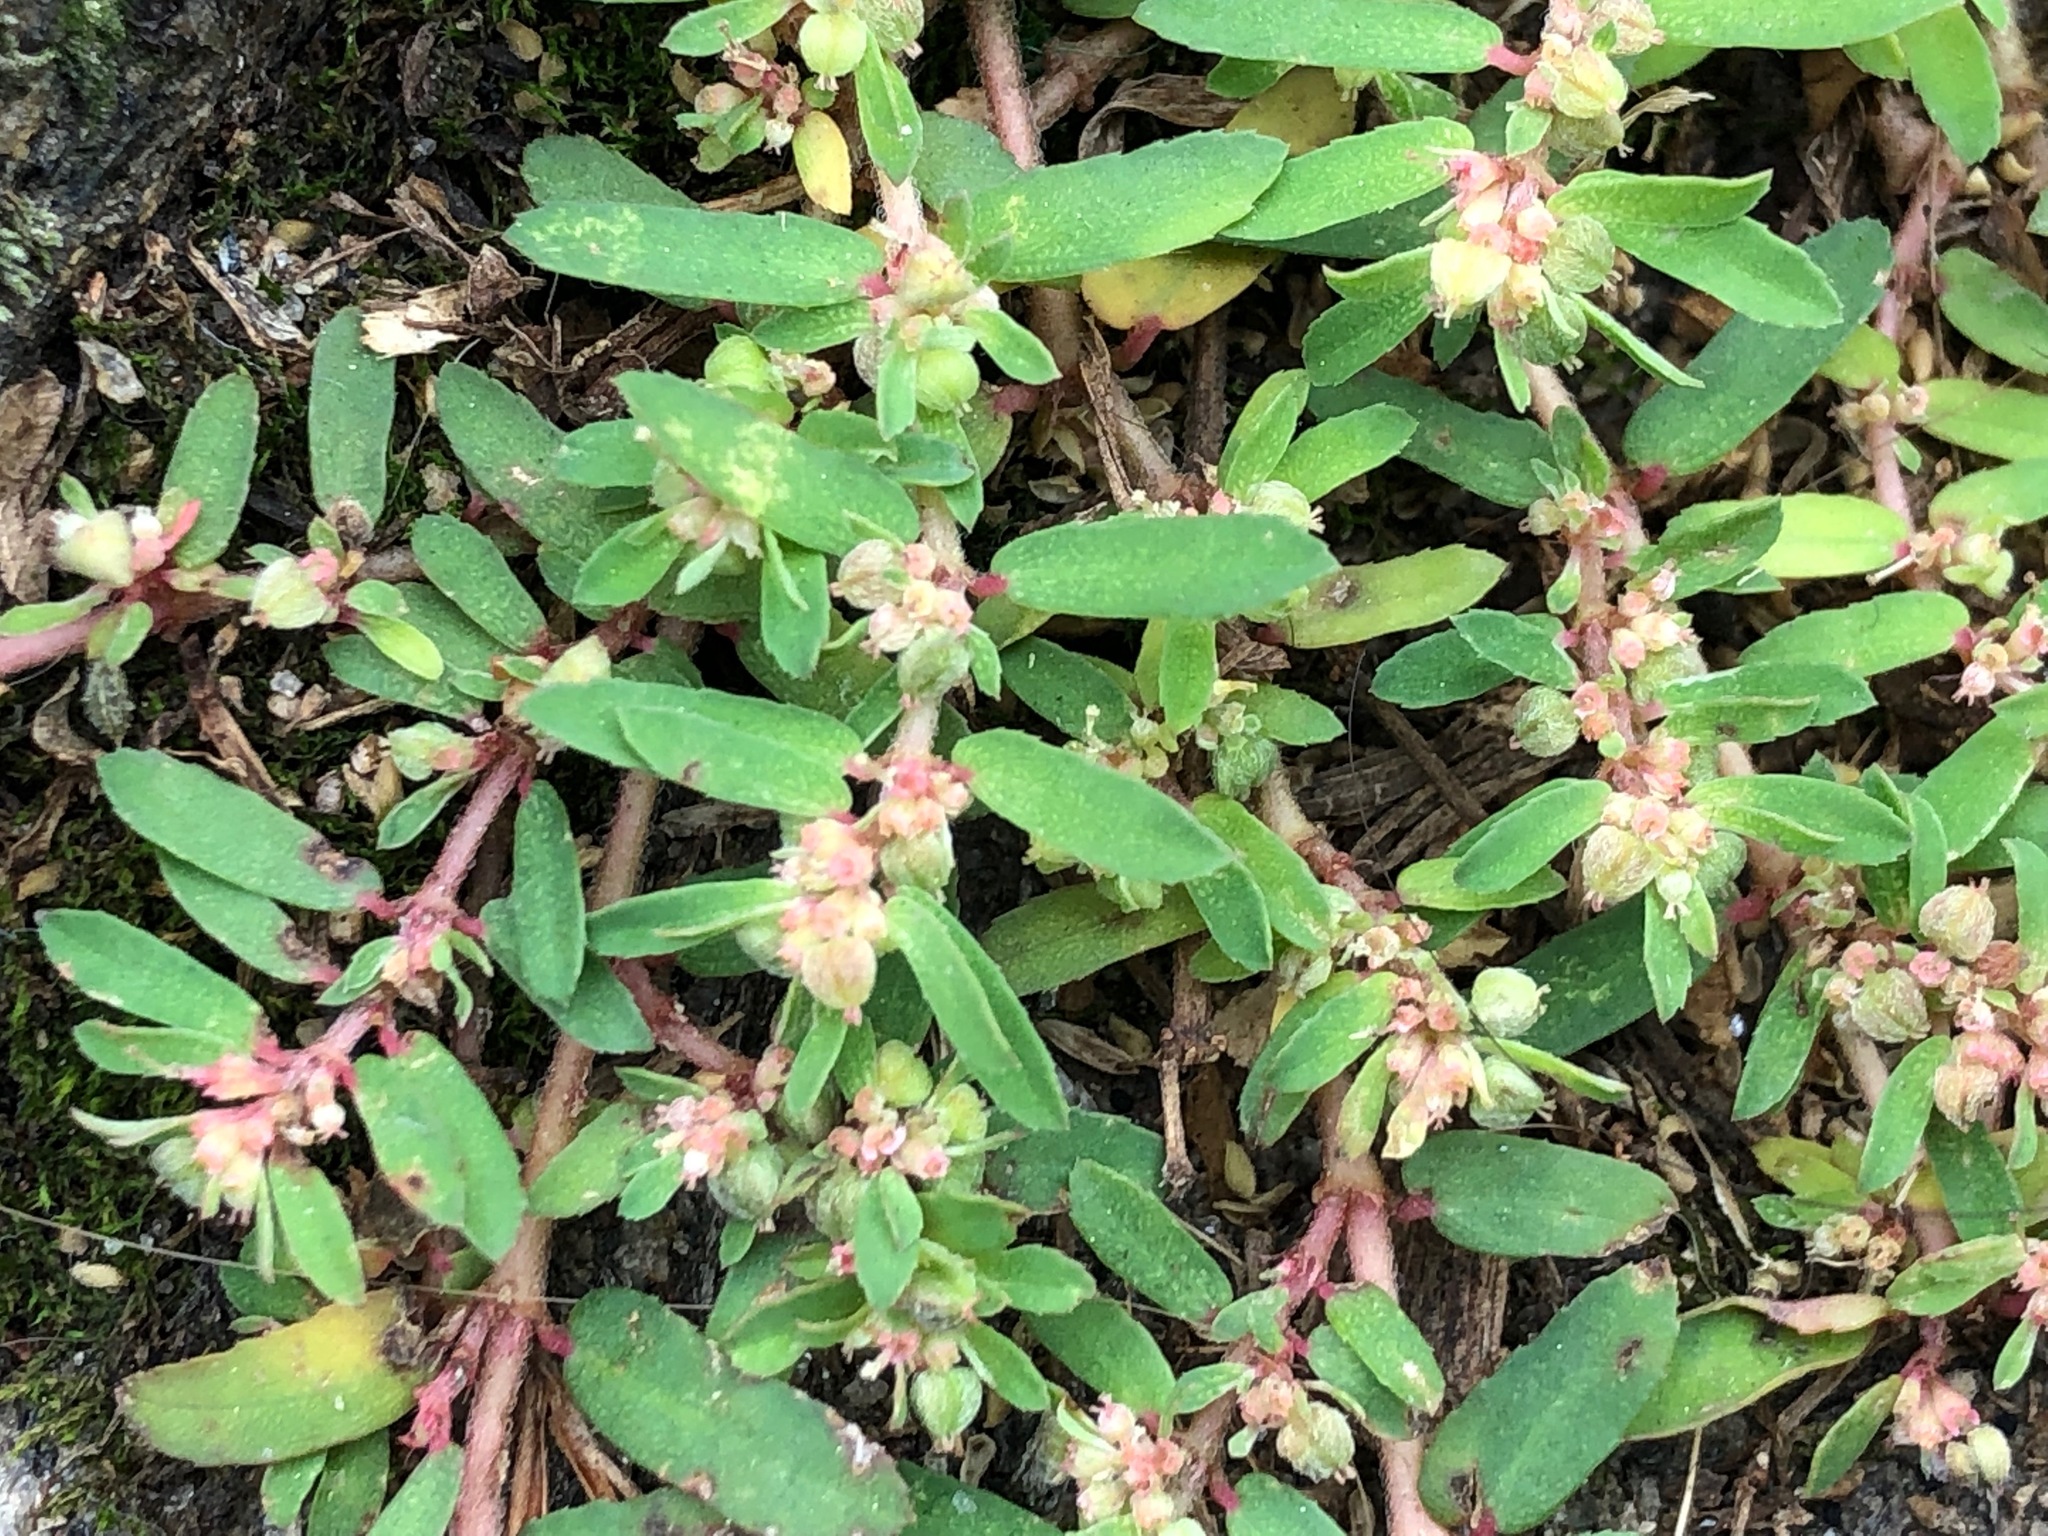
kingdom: Plantae
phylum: Tracheophyta
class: Magnoliopsida
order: Malpighiales
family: Euphorbiaceae
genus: Euphorbia
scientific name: Euphorbia maculata
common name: Spotted spurge
